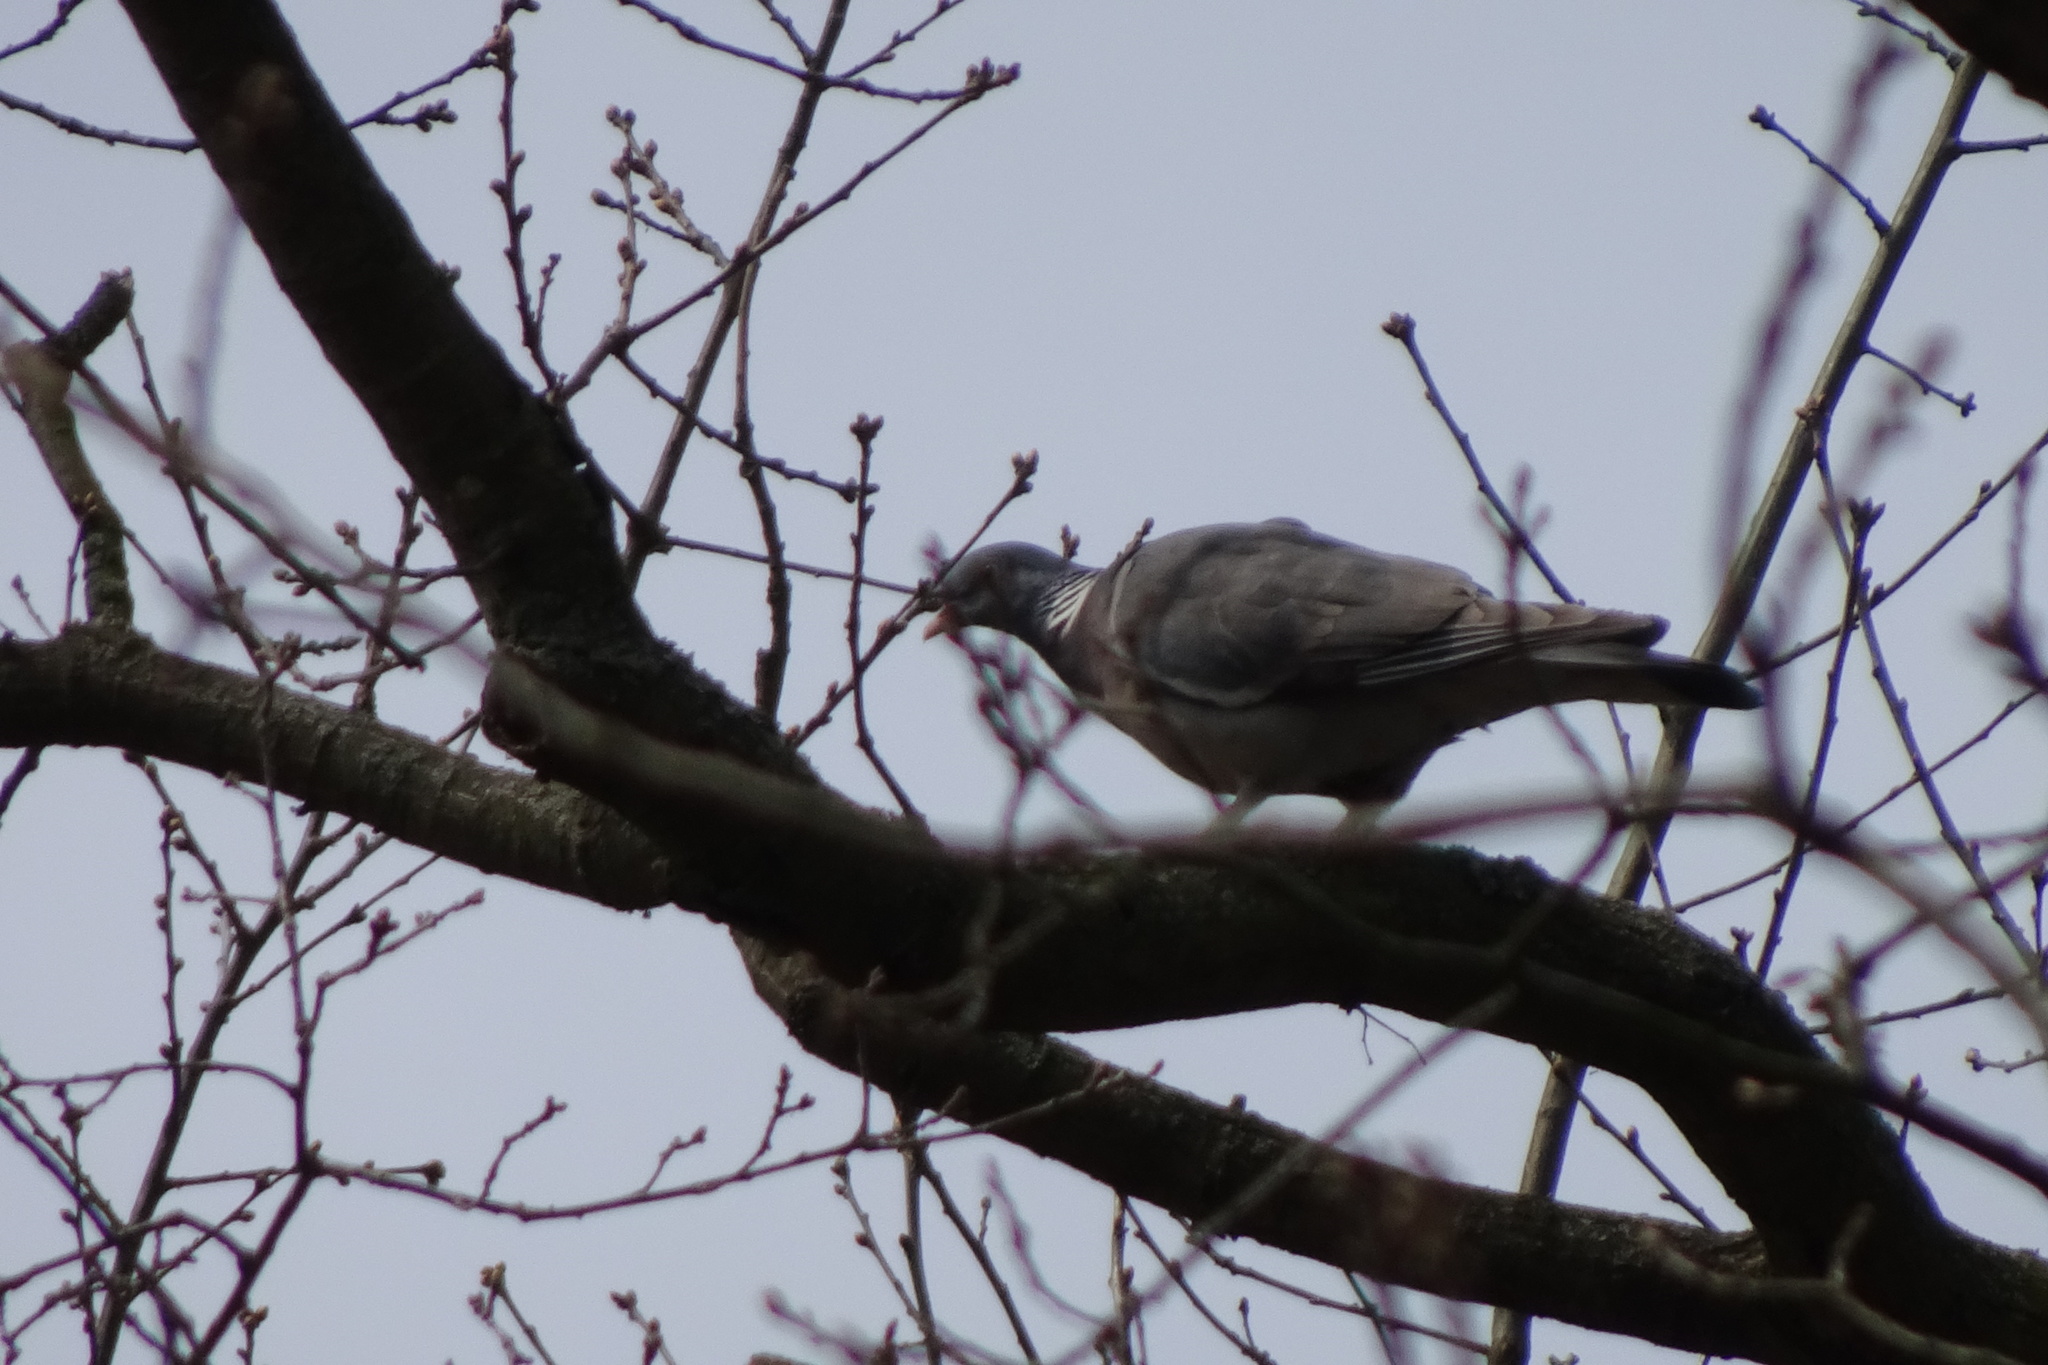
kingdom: Animalia
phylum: Chordata
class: Aves
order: Columbiformes
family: Columbidae
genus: Columba
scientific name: Columba palumbus
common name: Common wood pigeon
